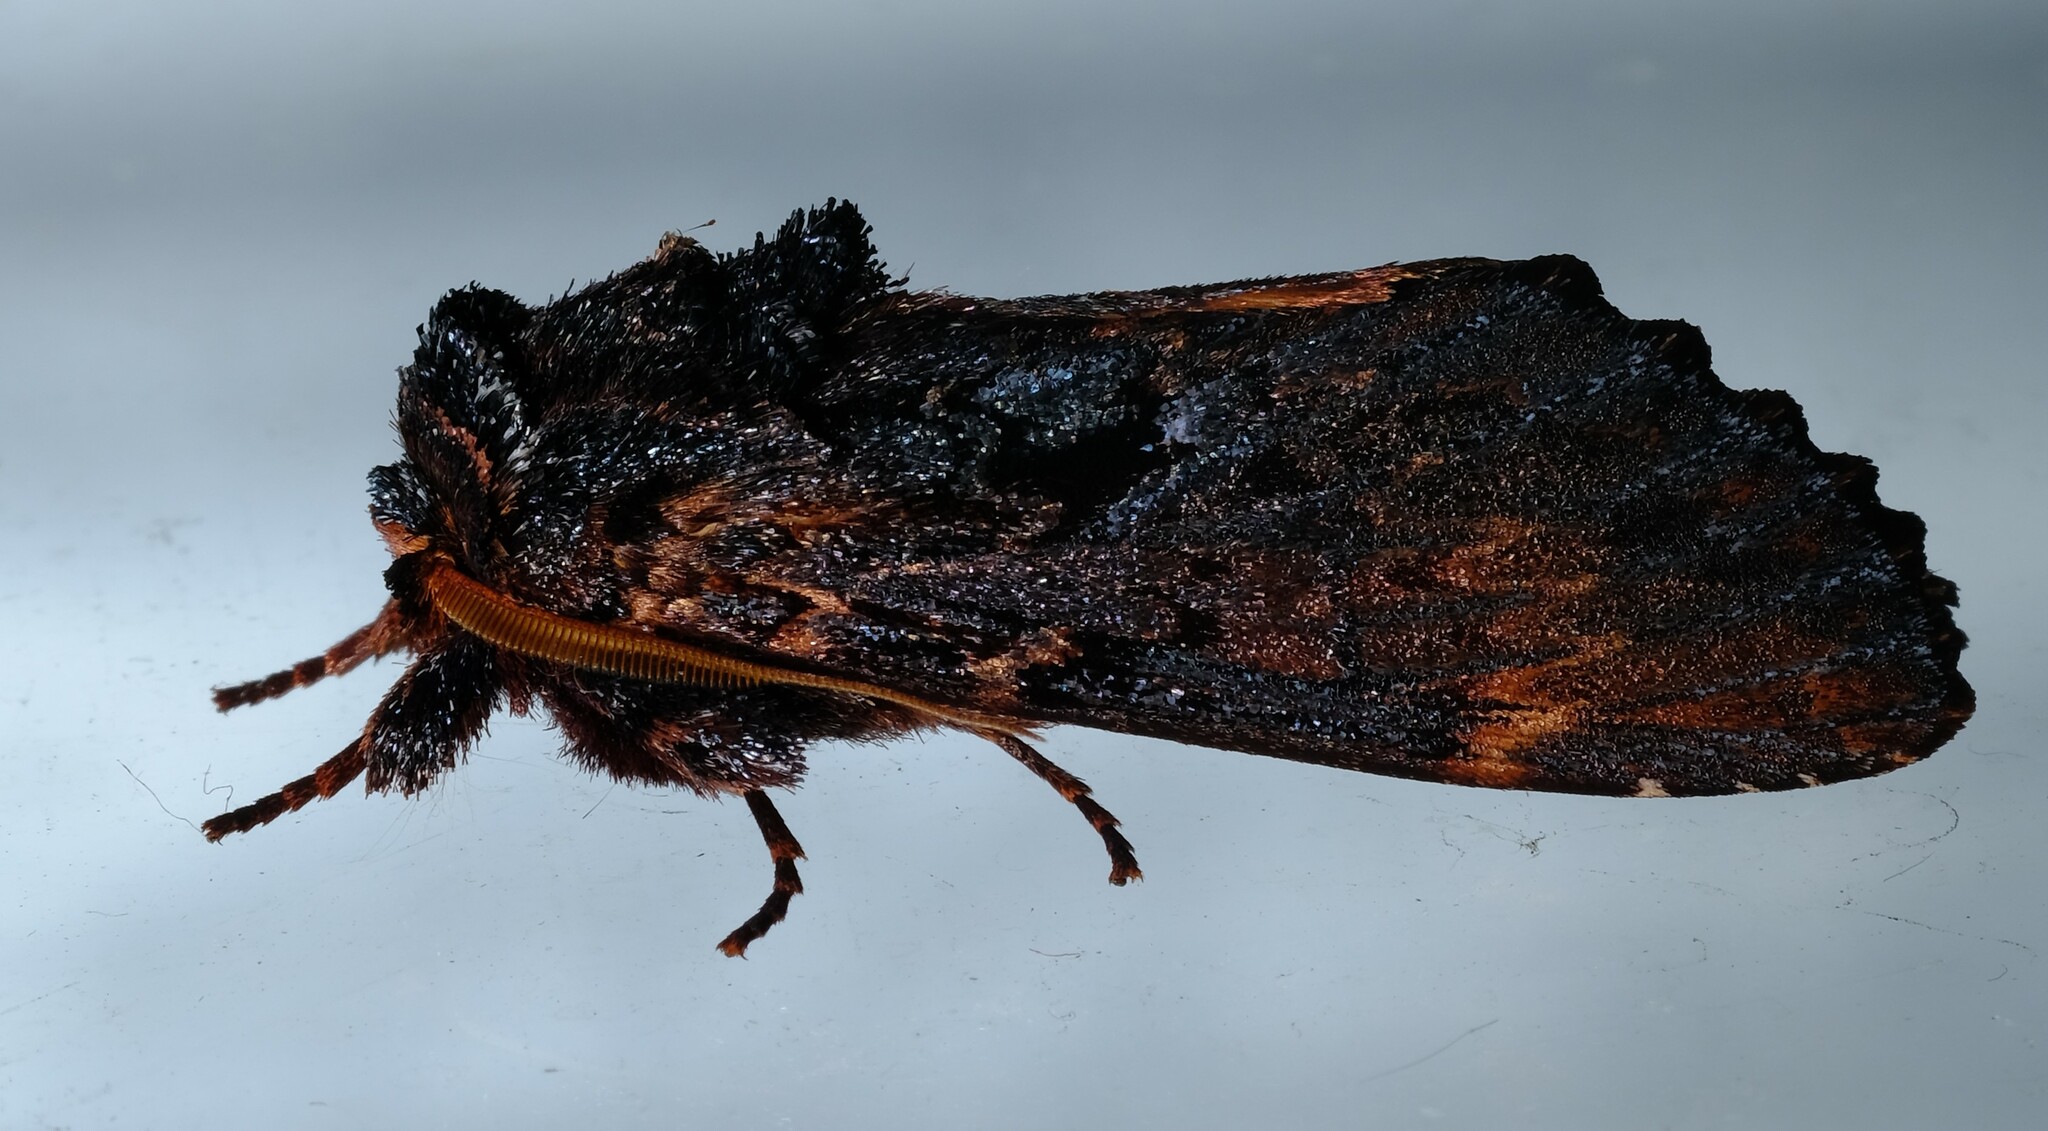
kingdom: Animalia
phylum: Arthropoda
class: Insecta
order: Lepidoptera
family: Notodontidae
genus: Sorama
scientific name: Sorama bicolor
